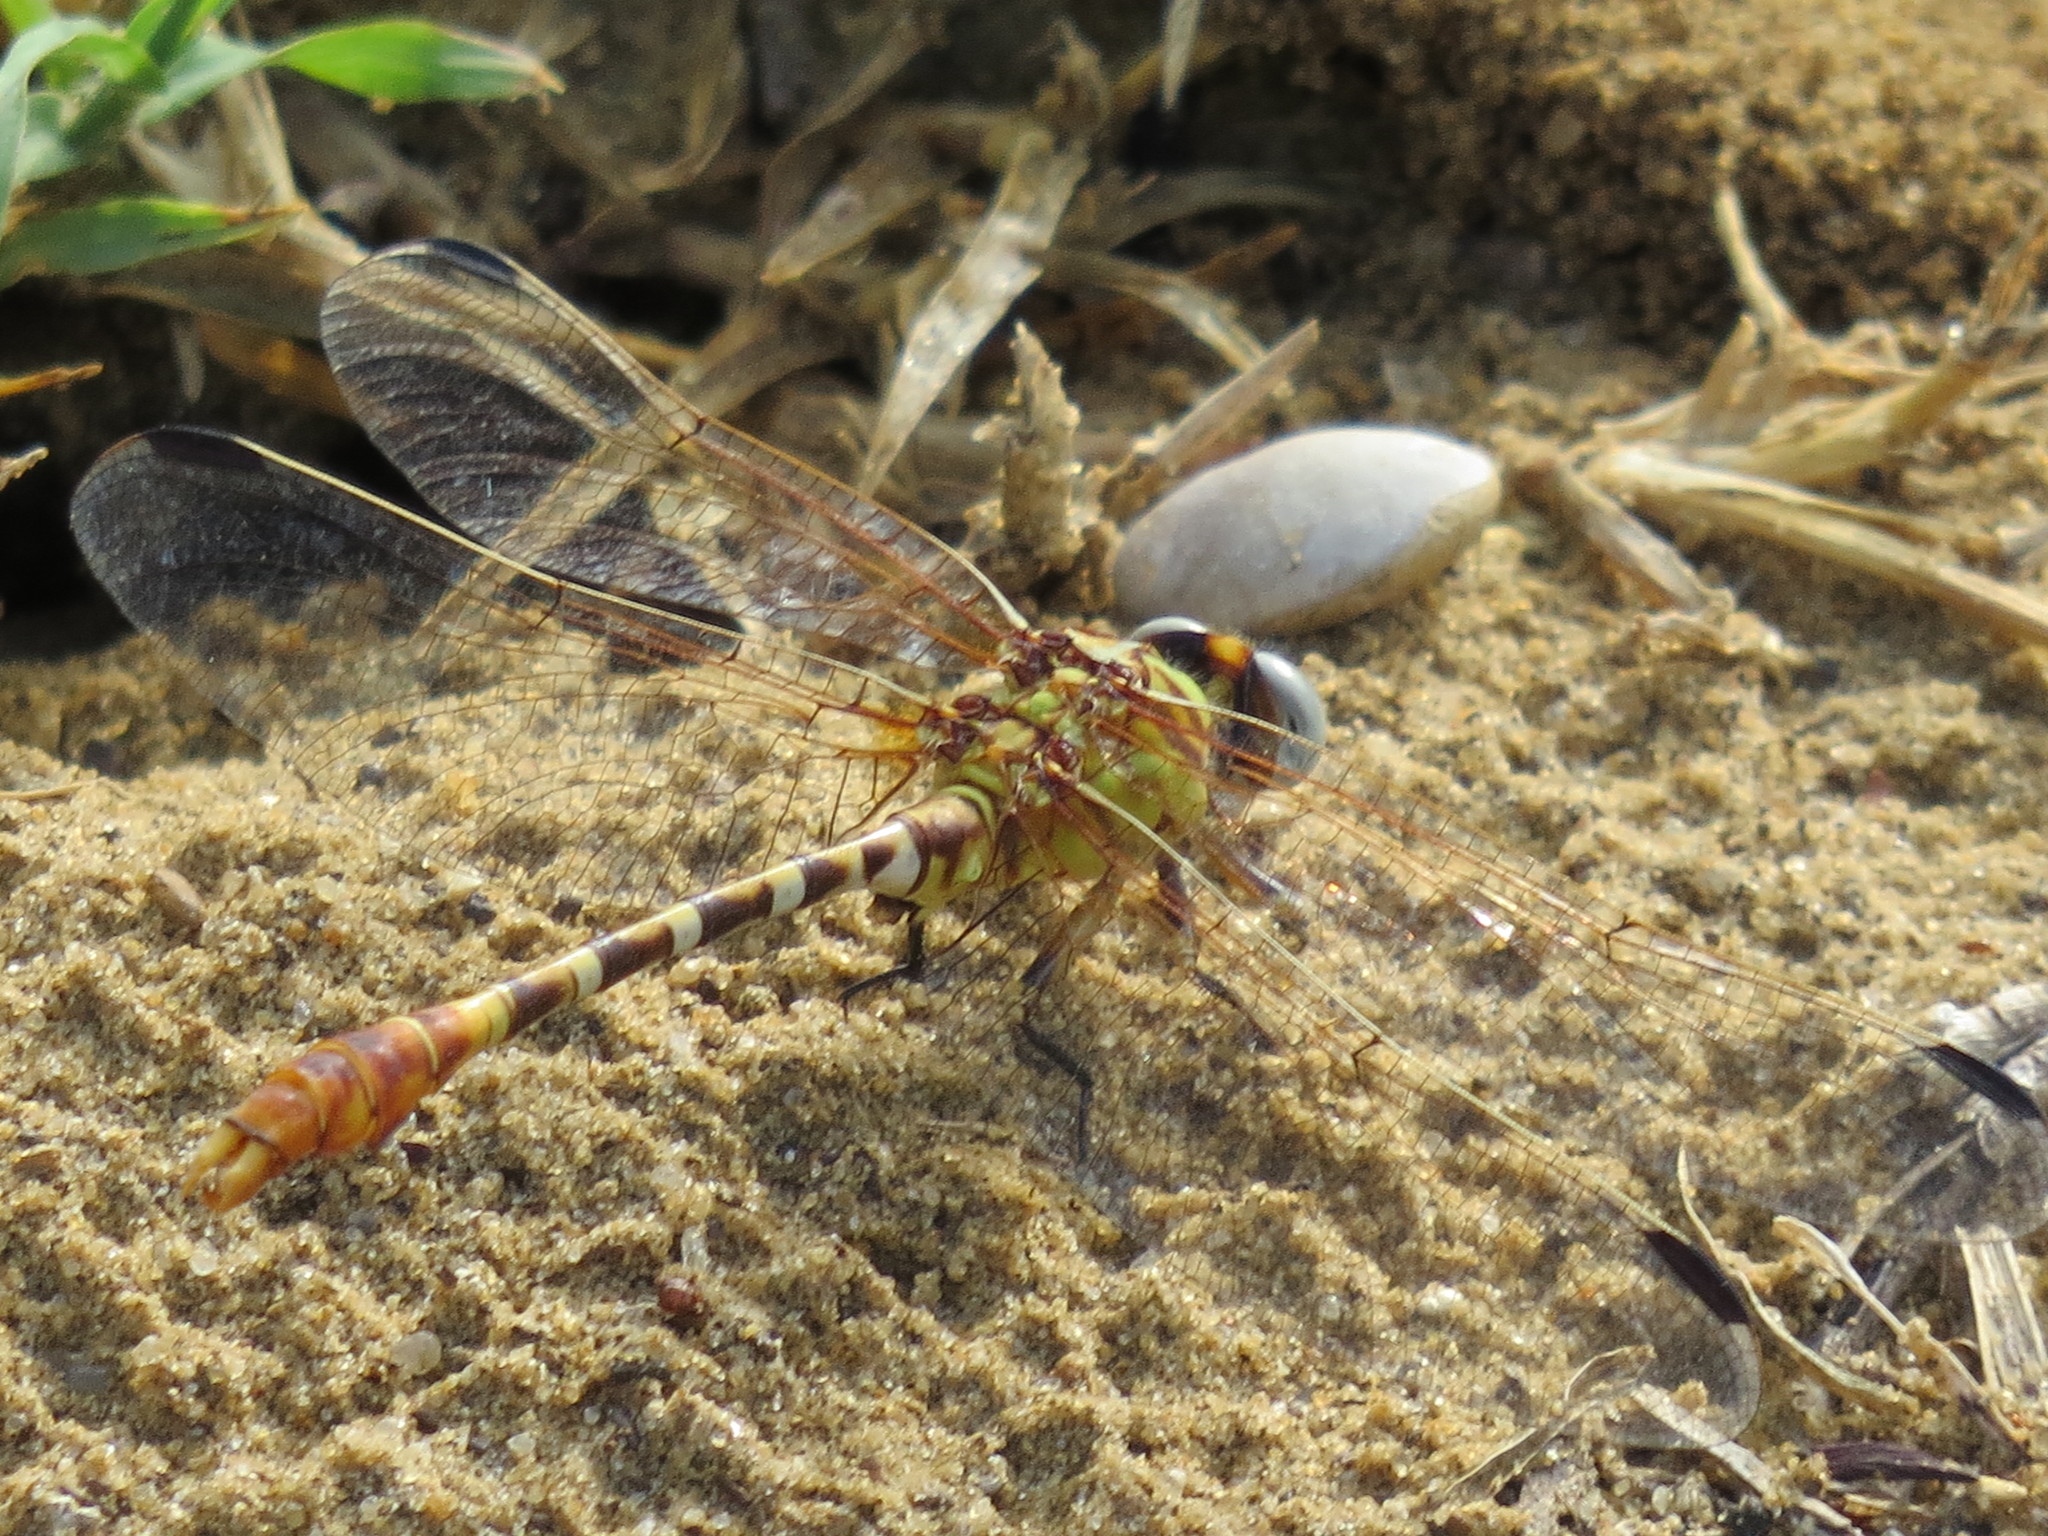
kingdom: Animalia
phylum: Arthropoda
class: Insecta
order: Odonata
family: Gomphidae
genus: Erpetogomphus
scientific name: Erpetogomphus designatus
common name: Eastern ringtail
